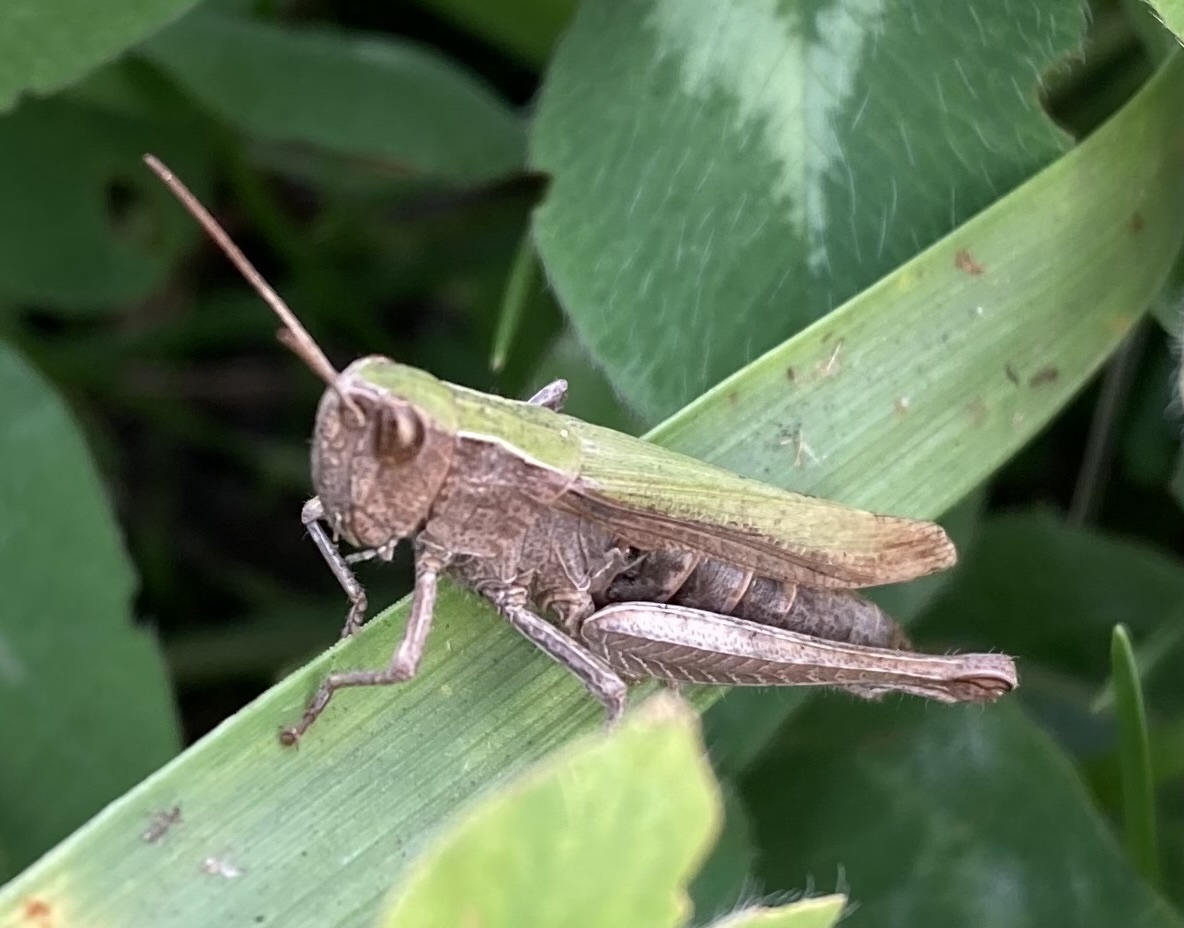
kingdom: Animalia
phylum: Arthropoda
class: Insecta
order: Orthoptera
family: Acrididae
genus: Chorthippus
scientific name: Chorthippus dorsatus
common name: Steppe grasshopper
